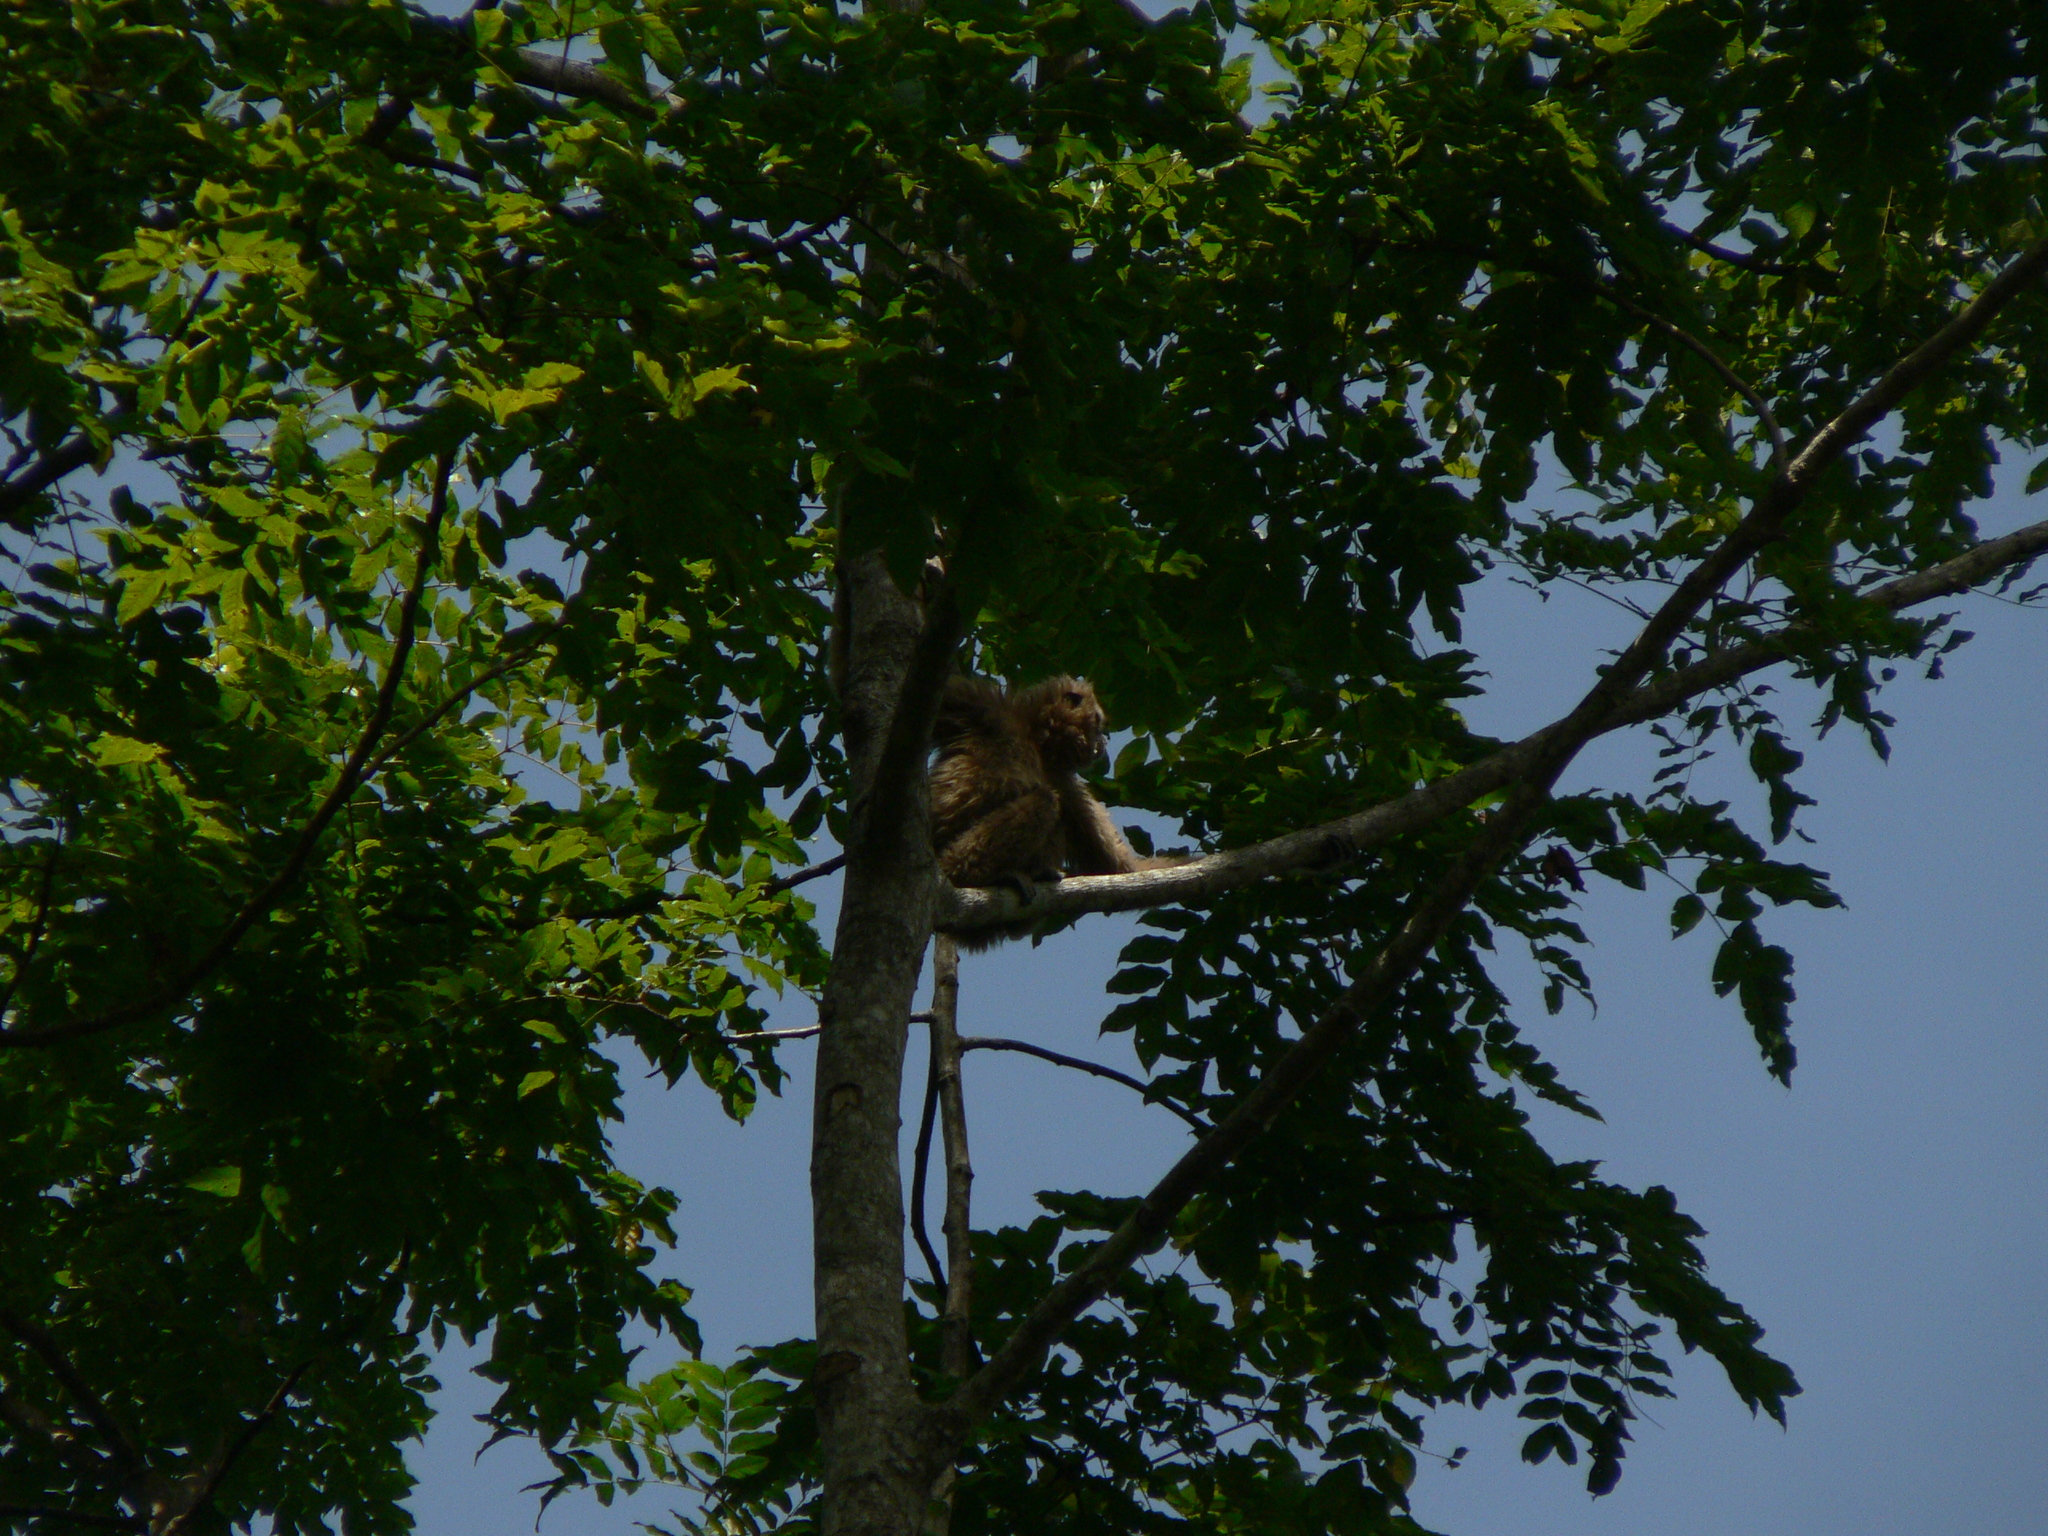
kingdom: Animalia
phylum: Chordata
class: Mammalia
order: Primates
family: Hylobatidae
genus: Hylobates
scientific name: Hylobates lar
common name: Lar gibbon
